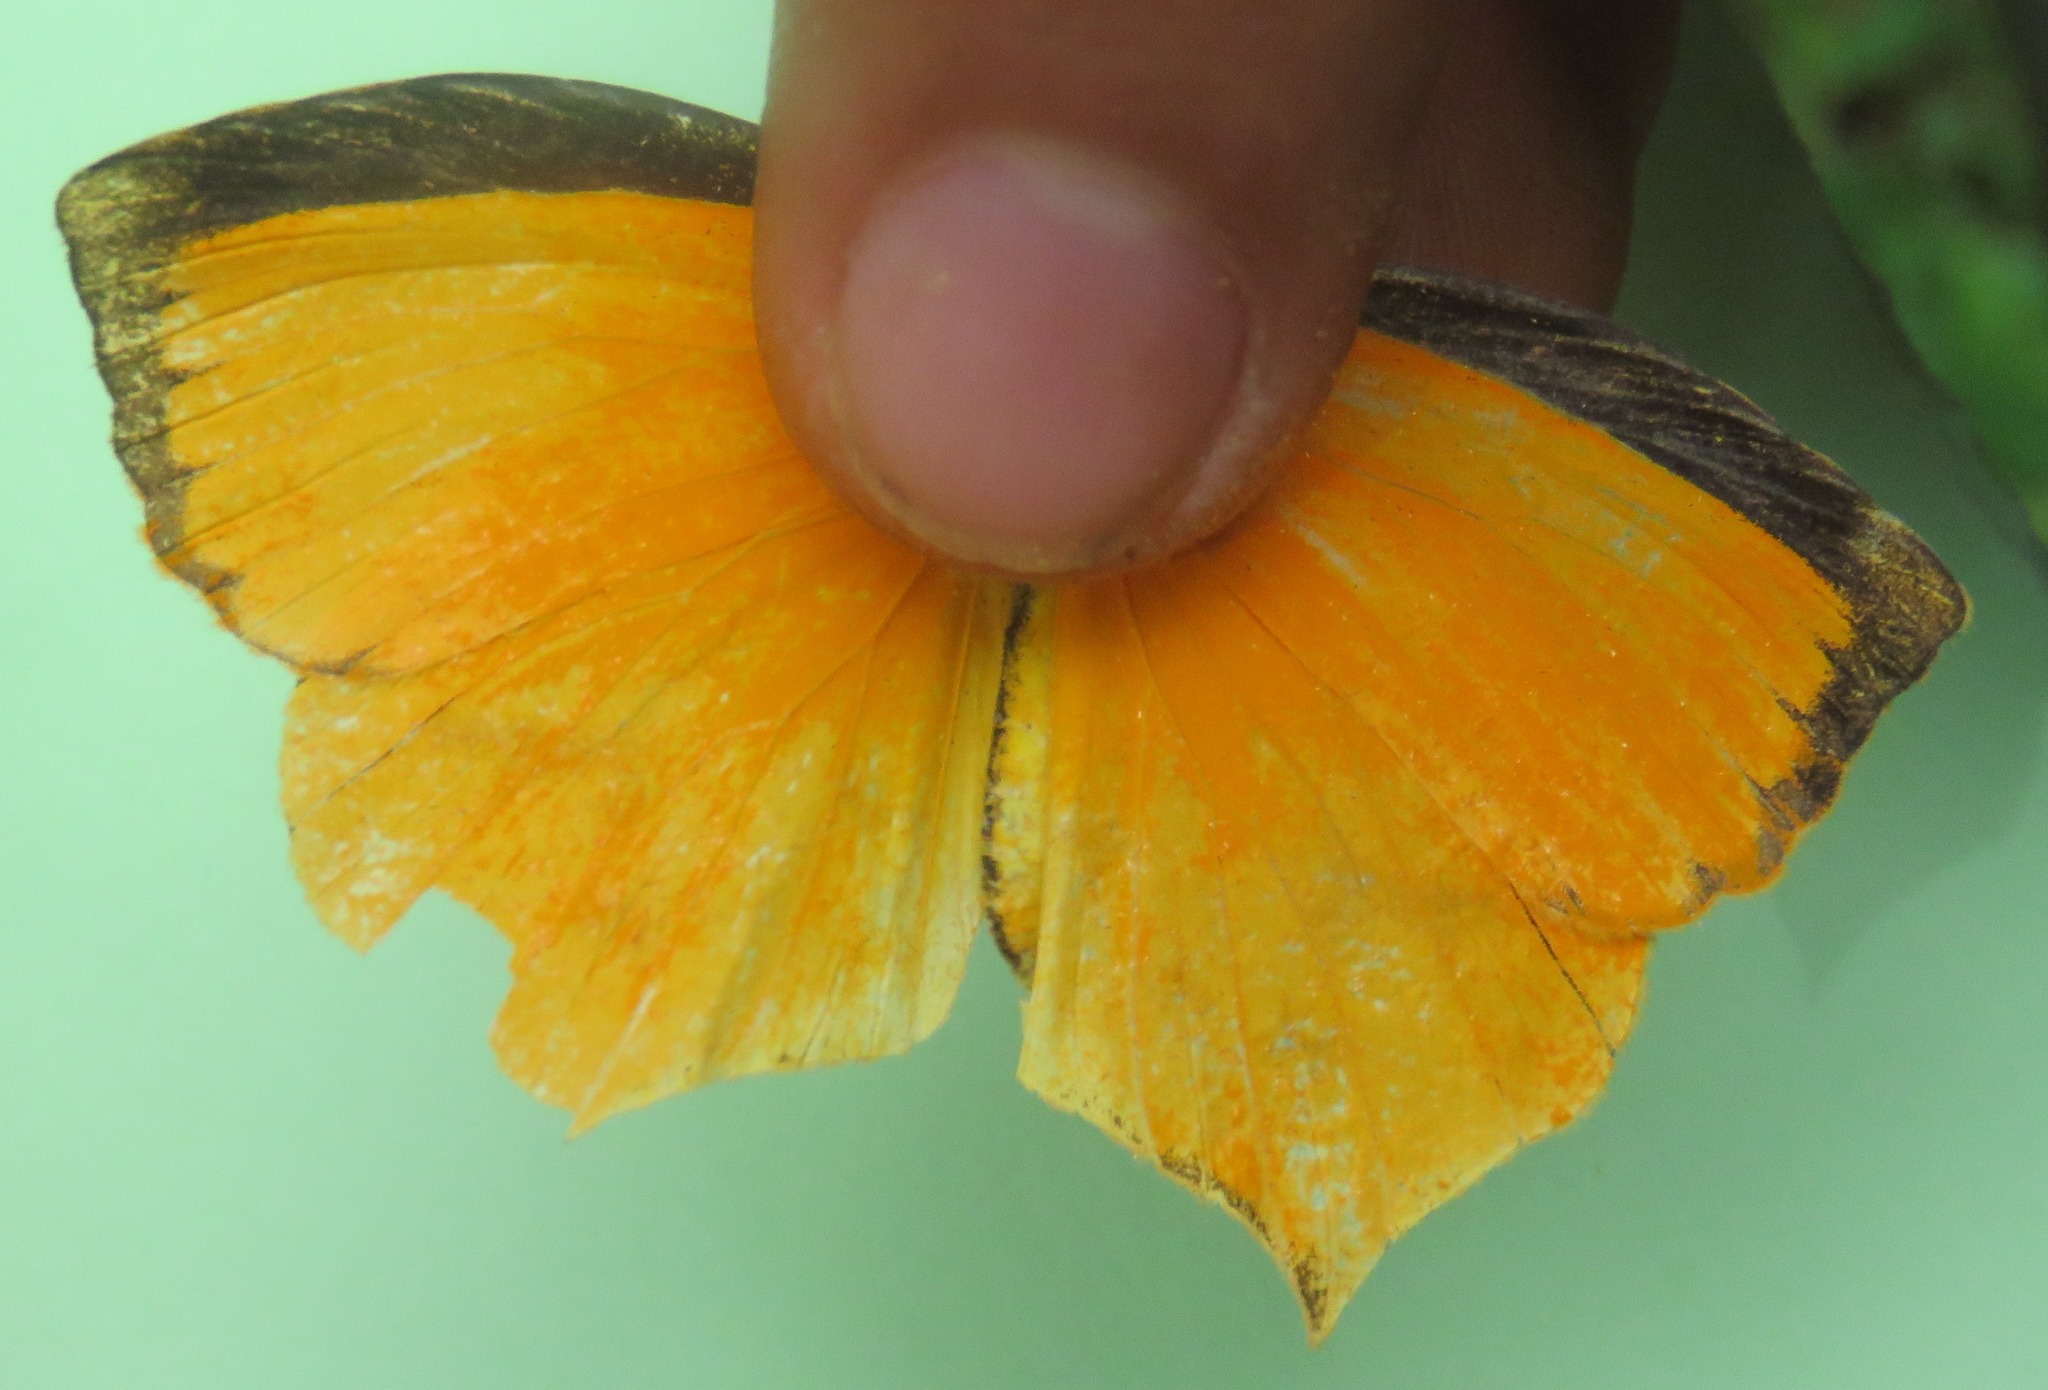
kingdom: Animalia
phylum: Arthropoda
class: Insecta
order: Lepidoptera
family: Pieridae
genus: Pyrisitia
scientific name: Pyrisitia proterpia
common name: Tailed orange
